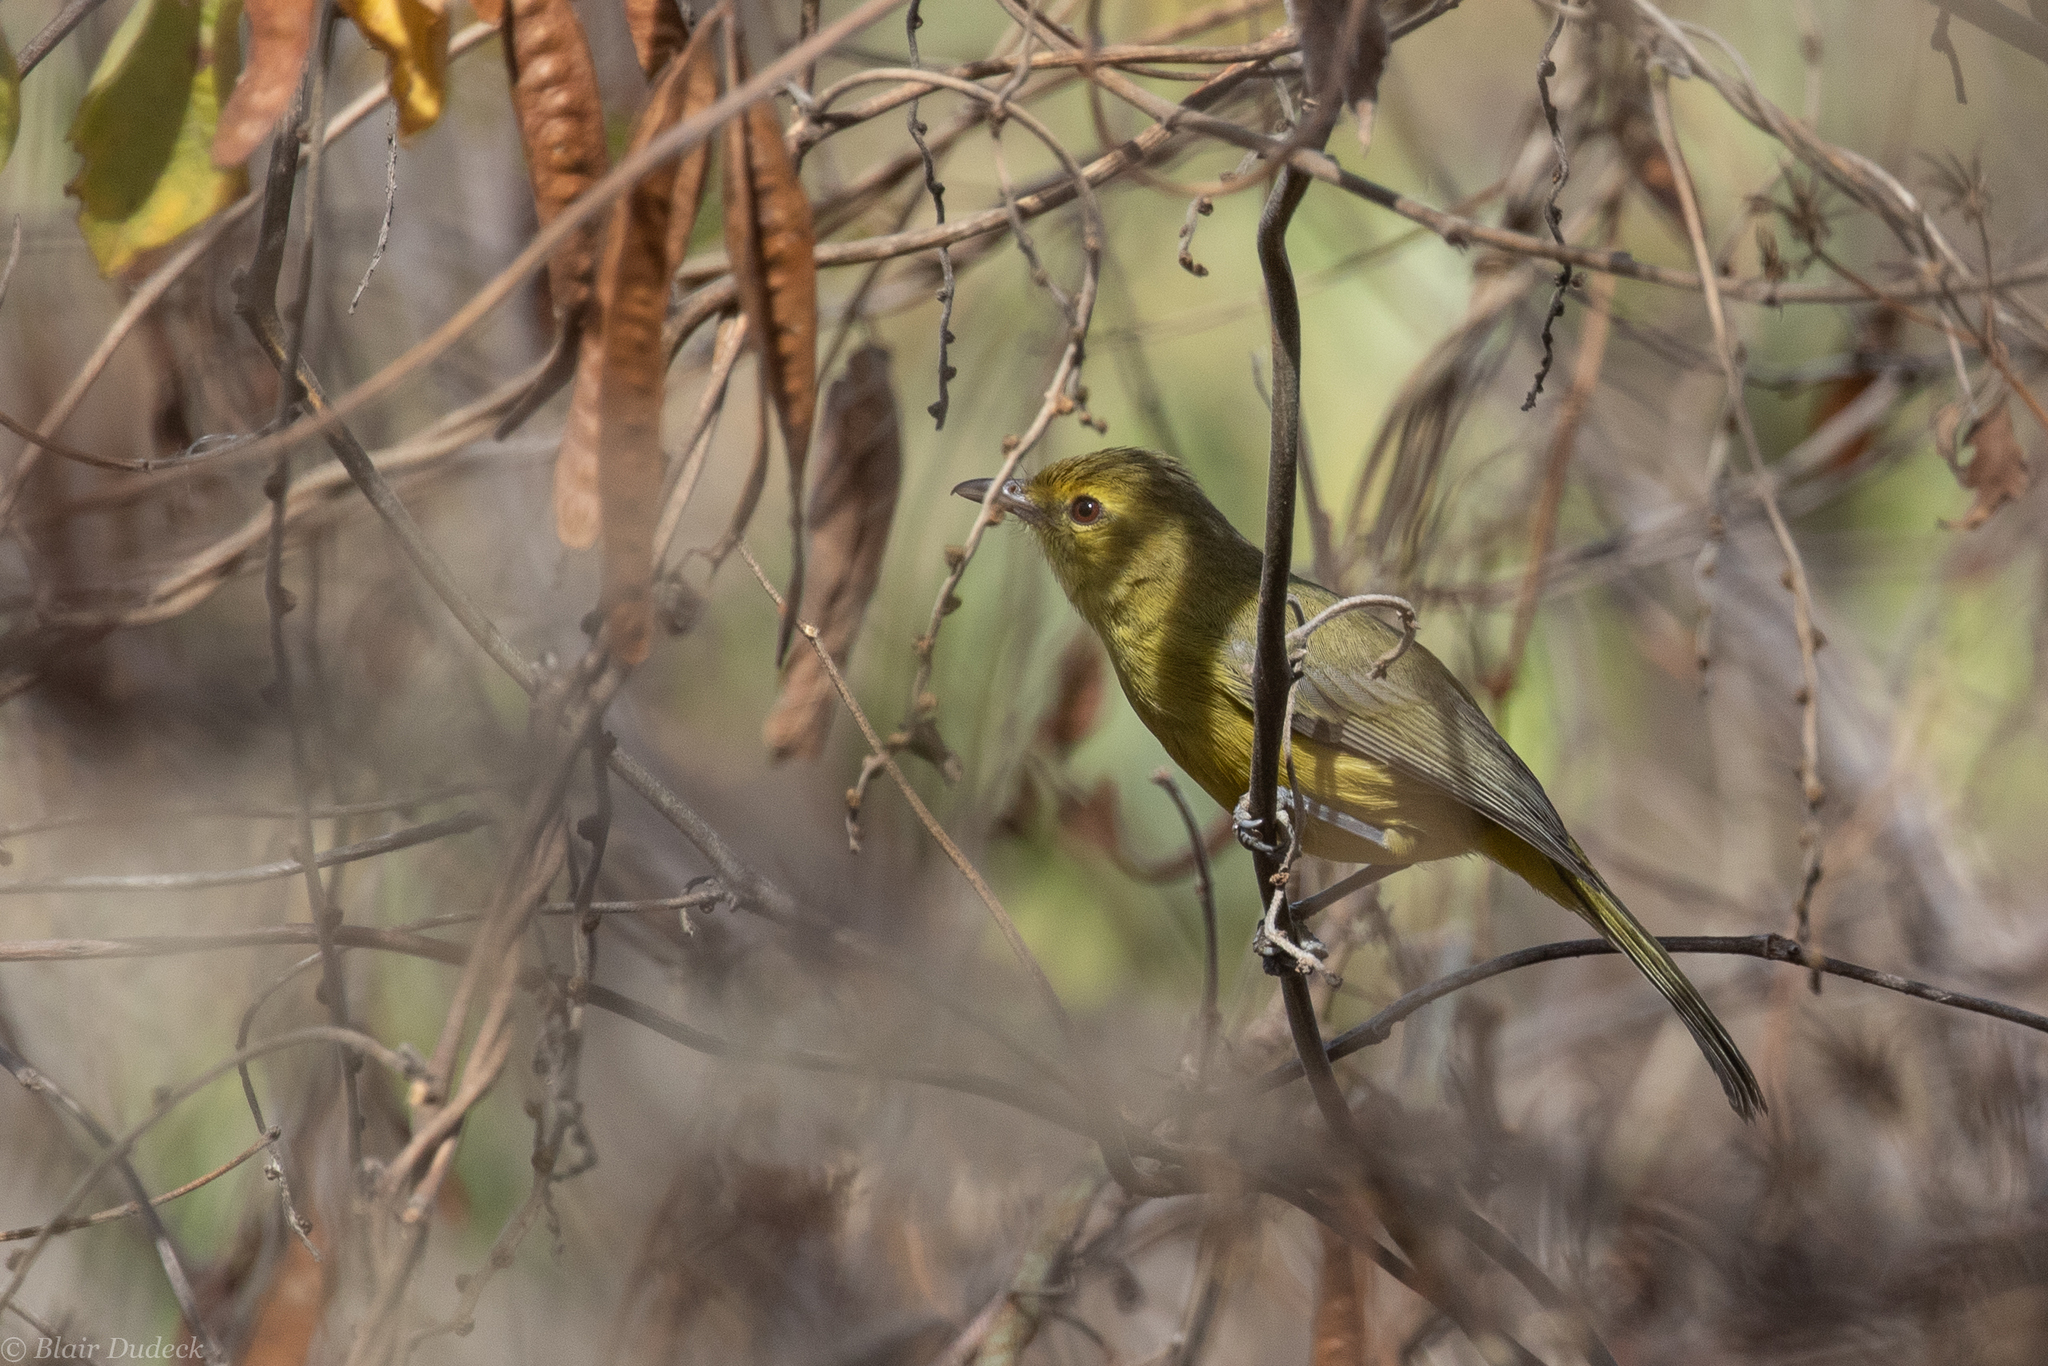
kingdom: Animalia
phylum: Chordata
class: Aves
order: Passeriformes
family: Vireonidae
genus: Vireo
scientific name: Vireo hypochryseus
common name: Golden vireo
